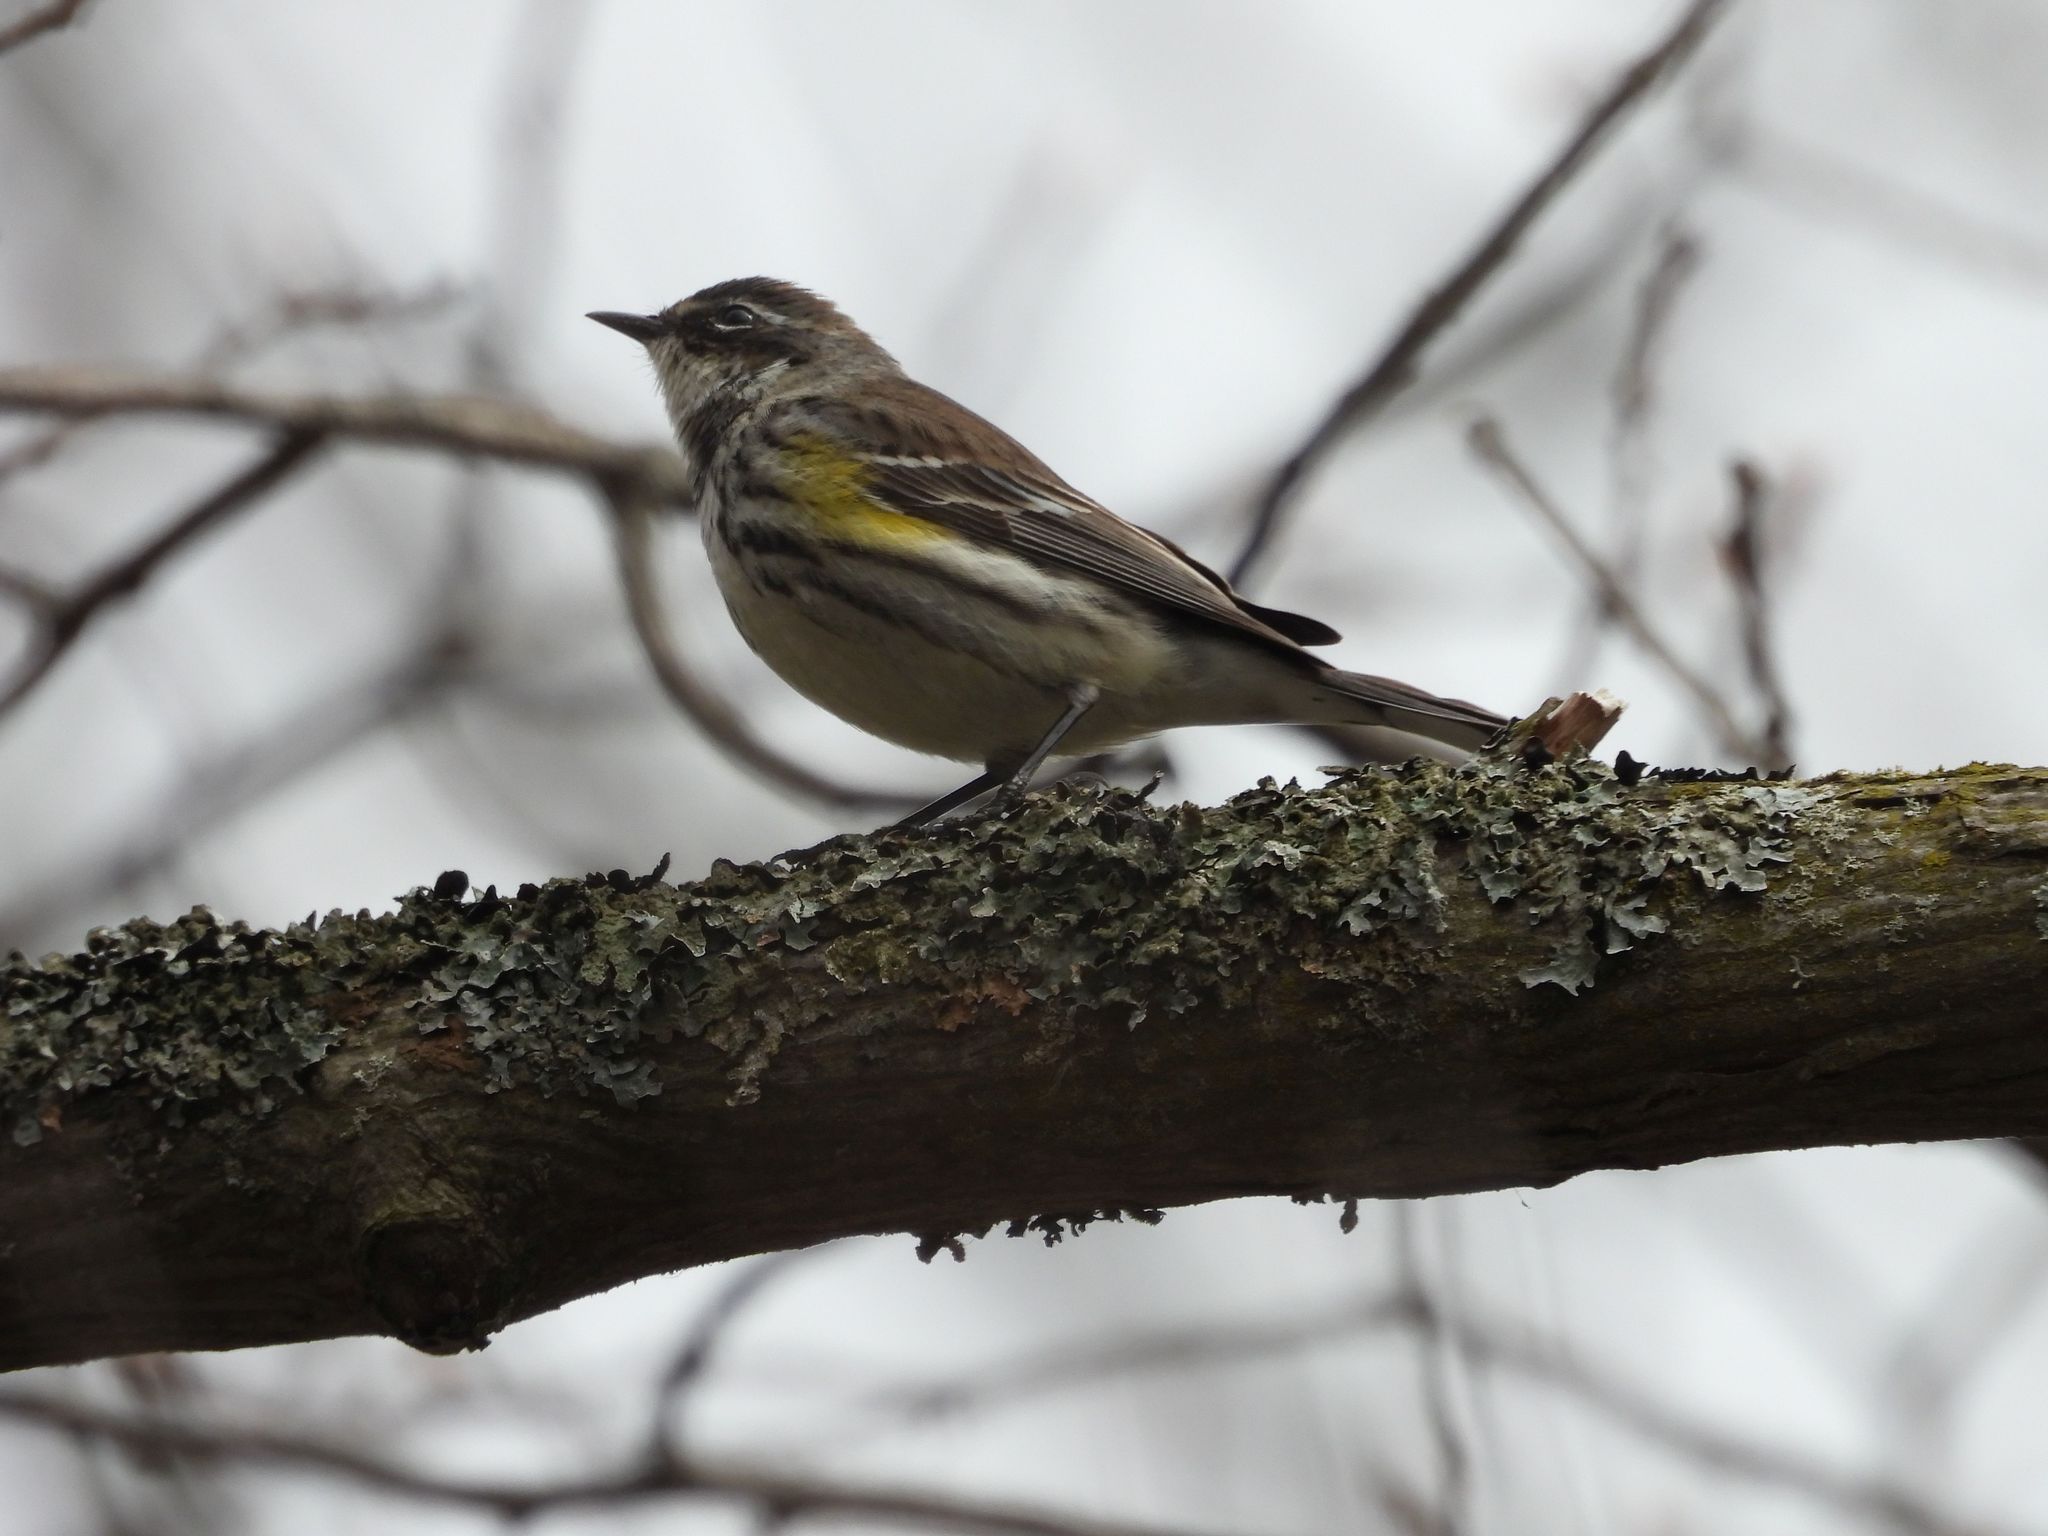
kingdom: Animalia
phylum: Chordata
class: Aves
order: Passeriformes
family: Parulidae
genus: Setophaga
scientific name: Setophaga coronata
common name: Myrtle warbler
